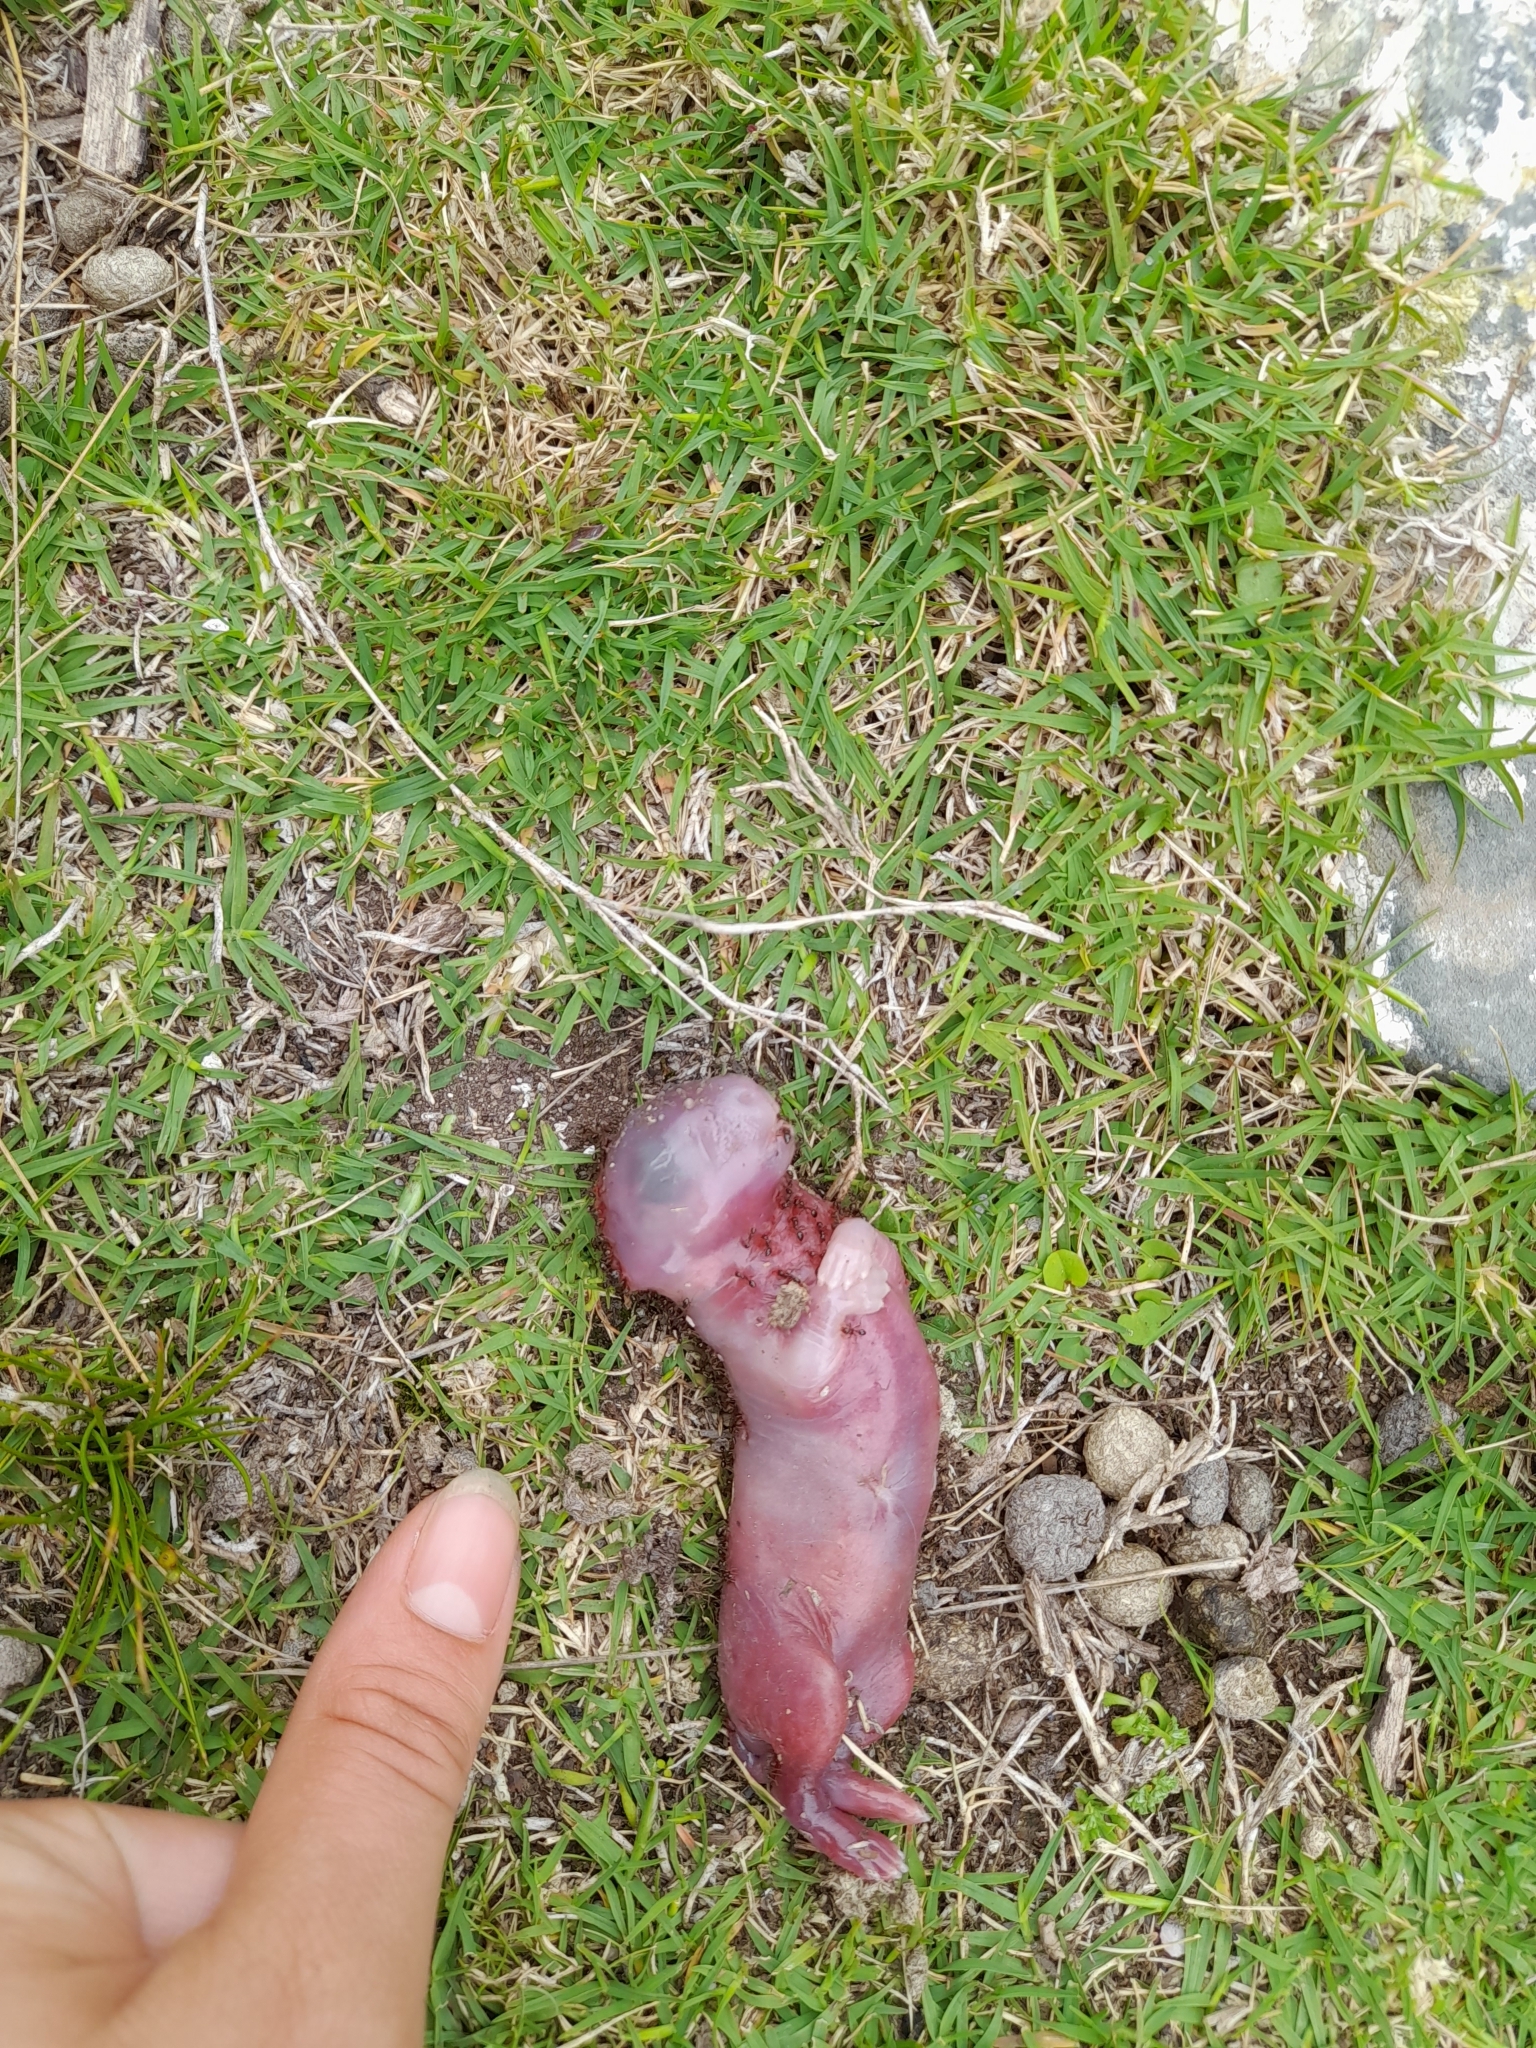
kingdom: Animalia
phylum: Chordata
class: Mammalia
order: Lagomorpha
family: Leporidae
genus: Oryctolagus
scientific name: Oryctolagus cuniculus
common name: European rabbit
